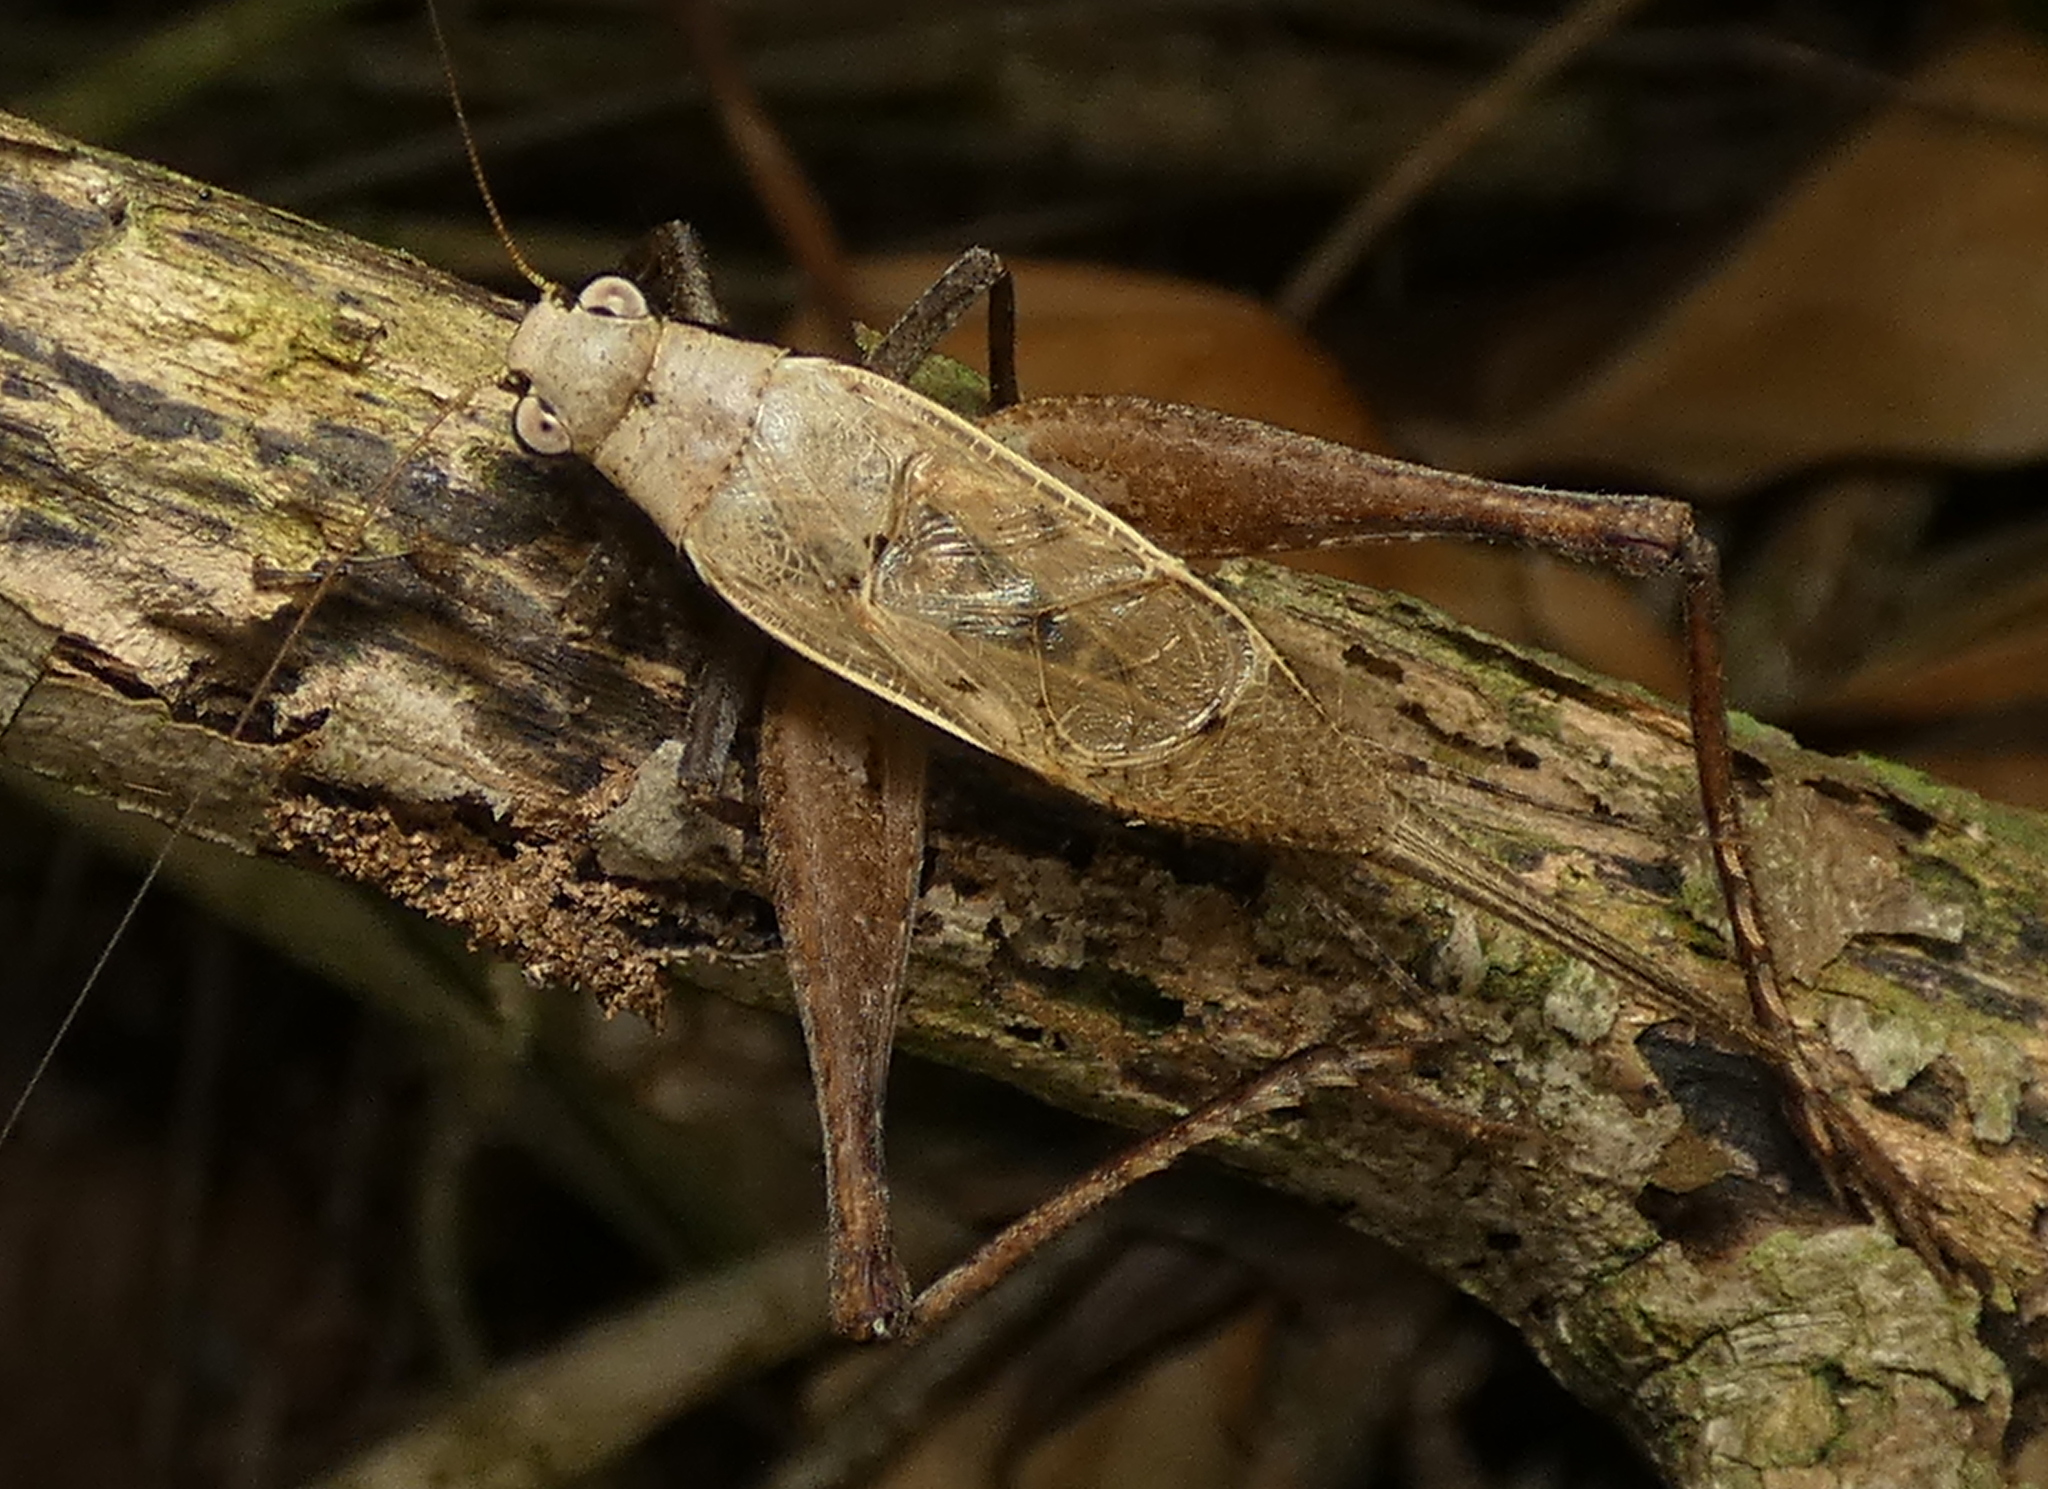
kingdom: Animalia
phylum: Arthropoda
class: Insecta
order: Orthoptera
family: Gryllidae
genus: Eneoptera
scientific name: Eneoptera surinamensis
